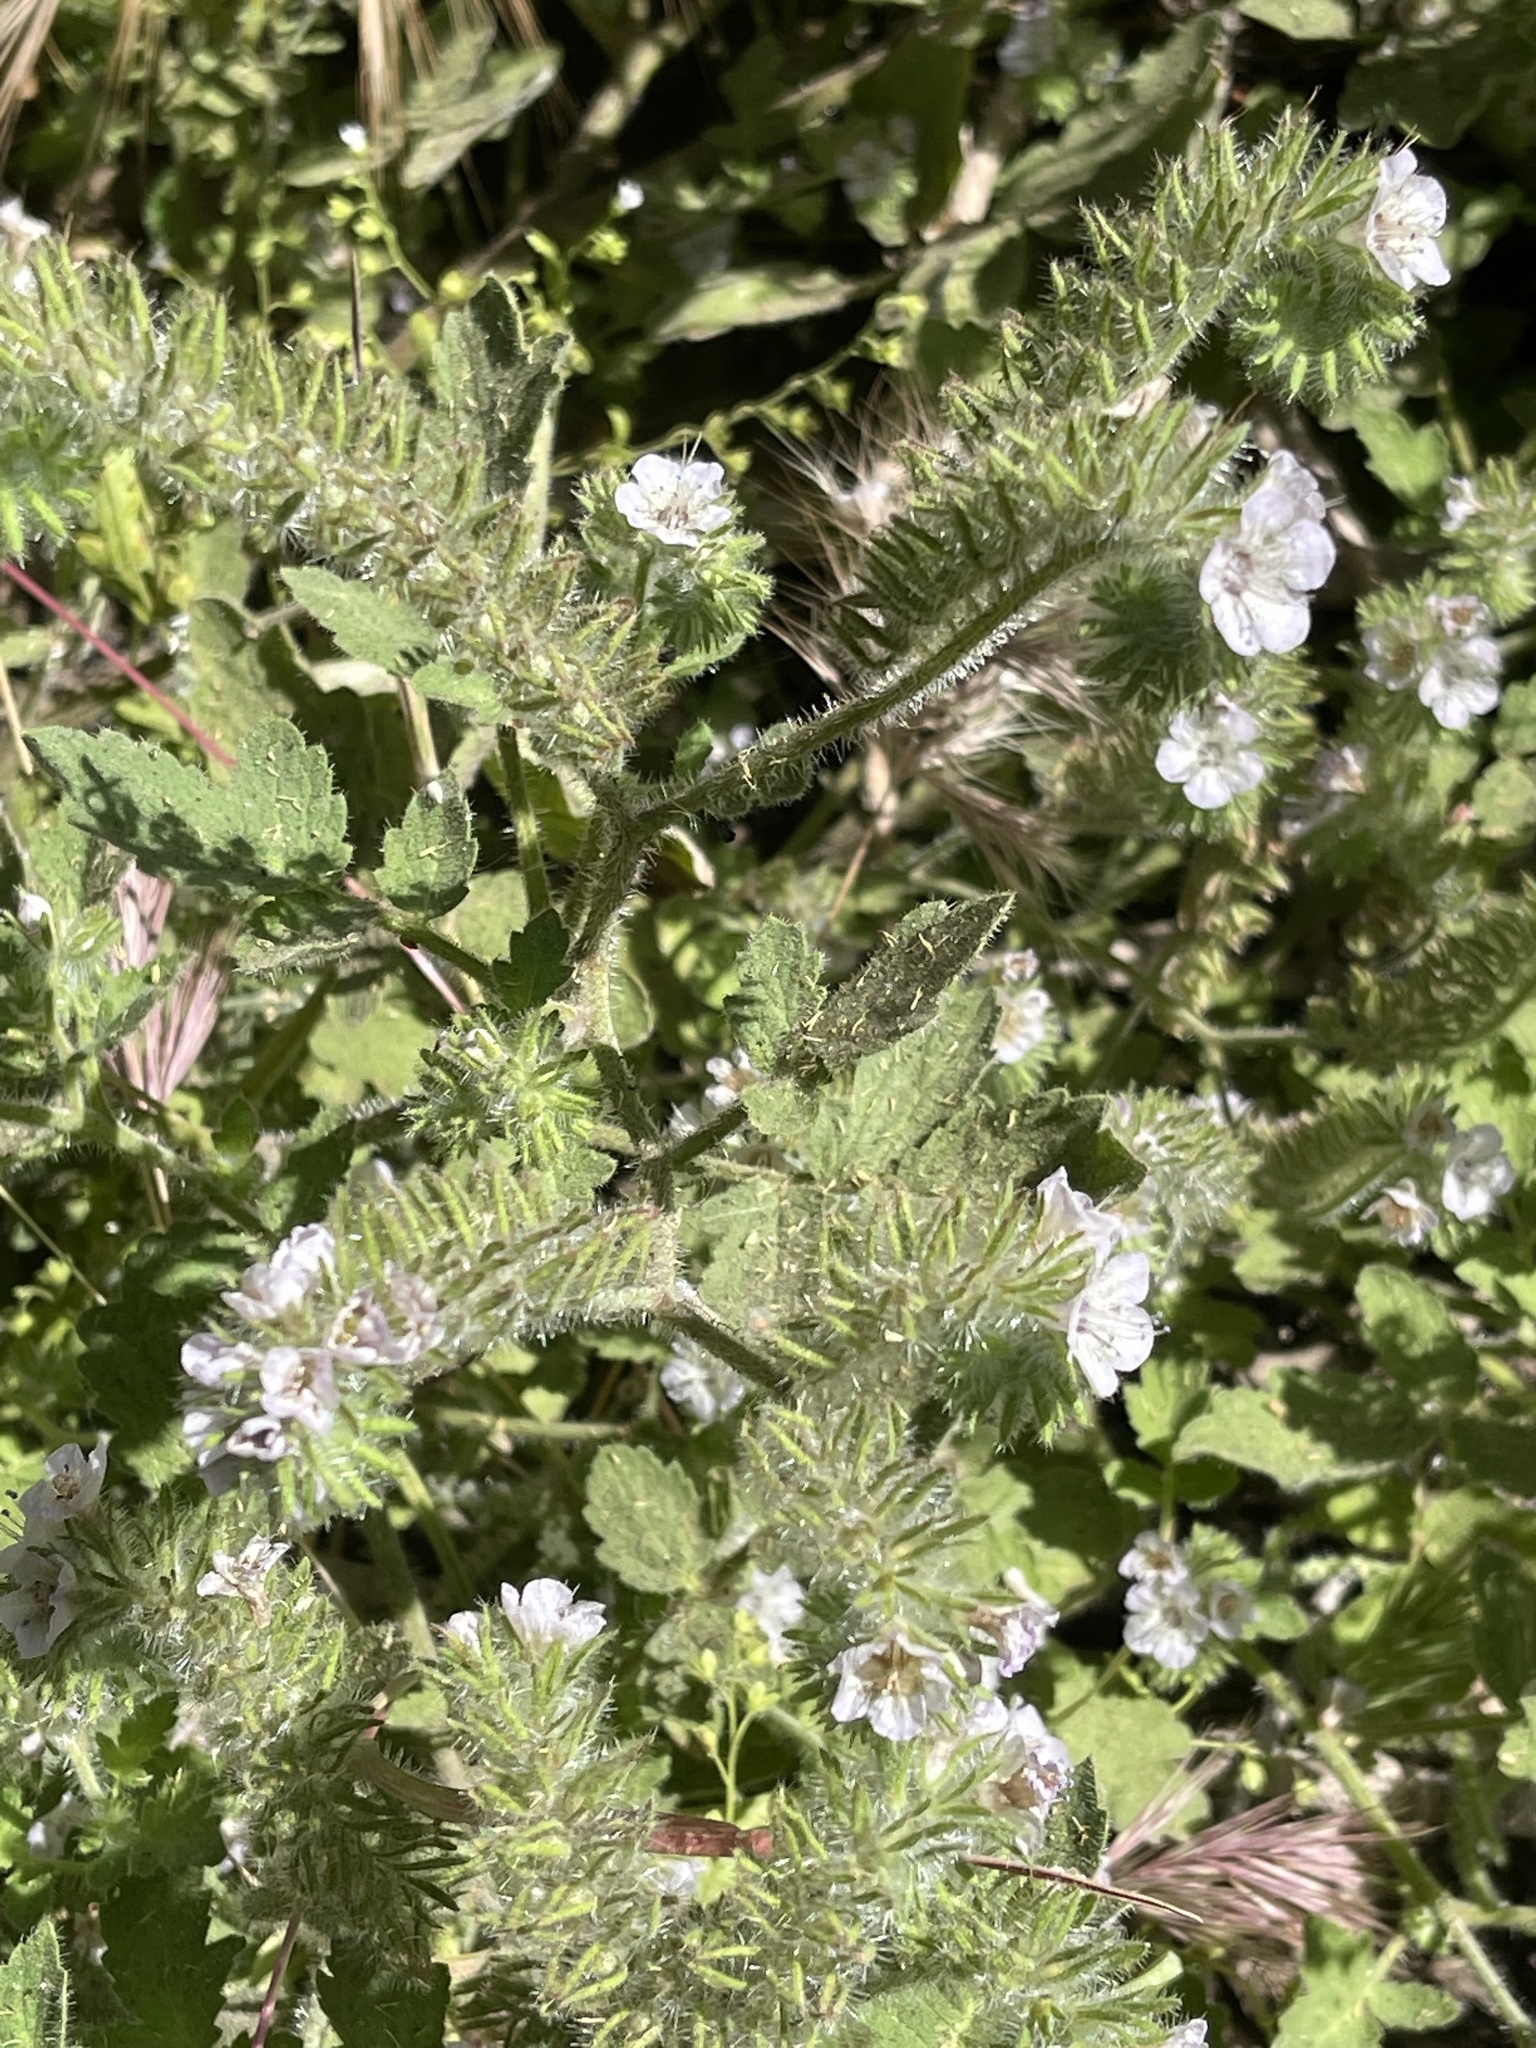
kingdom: Plantae
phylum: Tracheophyta
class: Magnoliopsida
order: Boraginales
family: Hydrophyllaceae
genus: Phacelia
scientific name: Phacelia cicutaria
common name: Caterpillar phacelia
